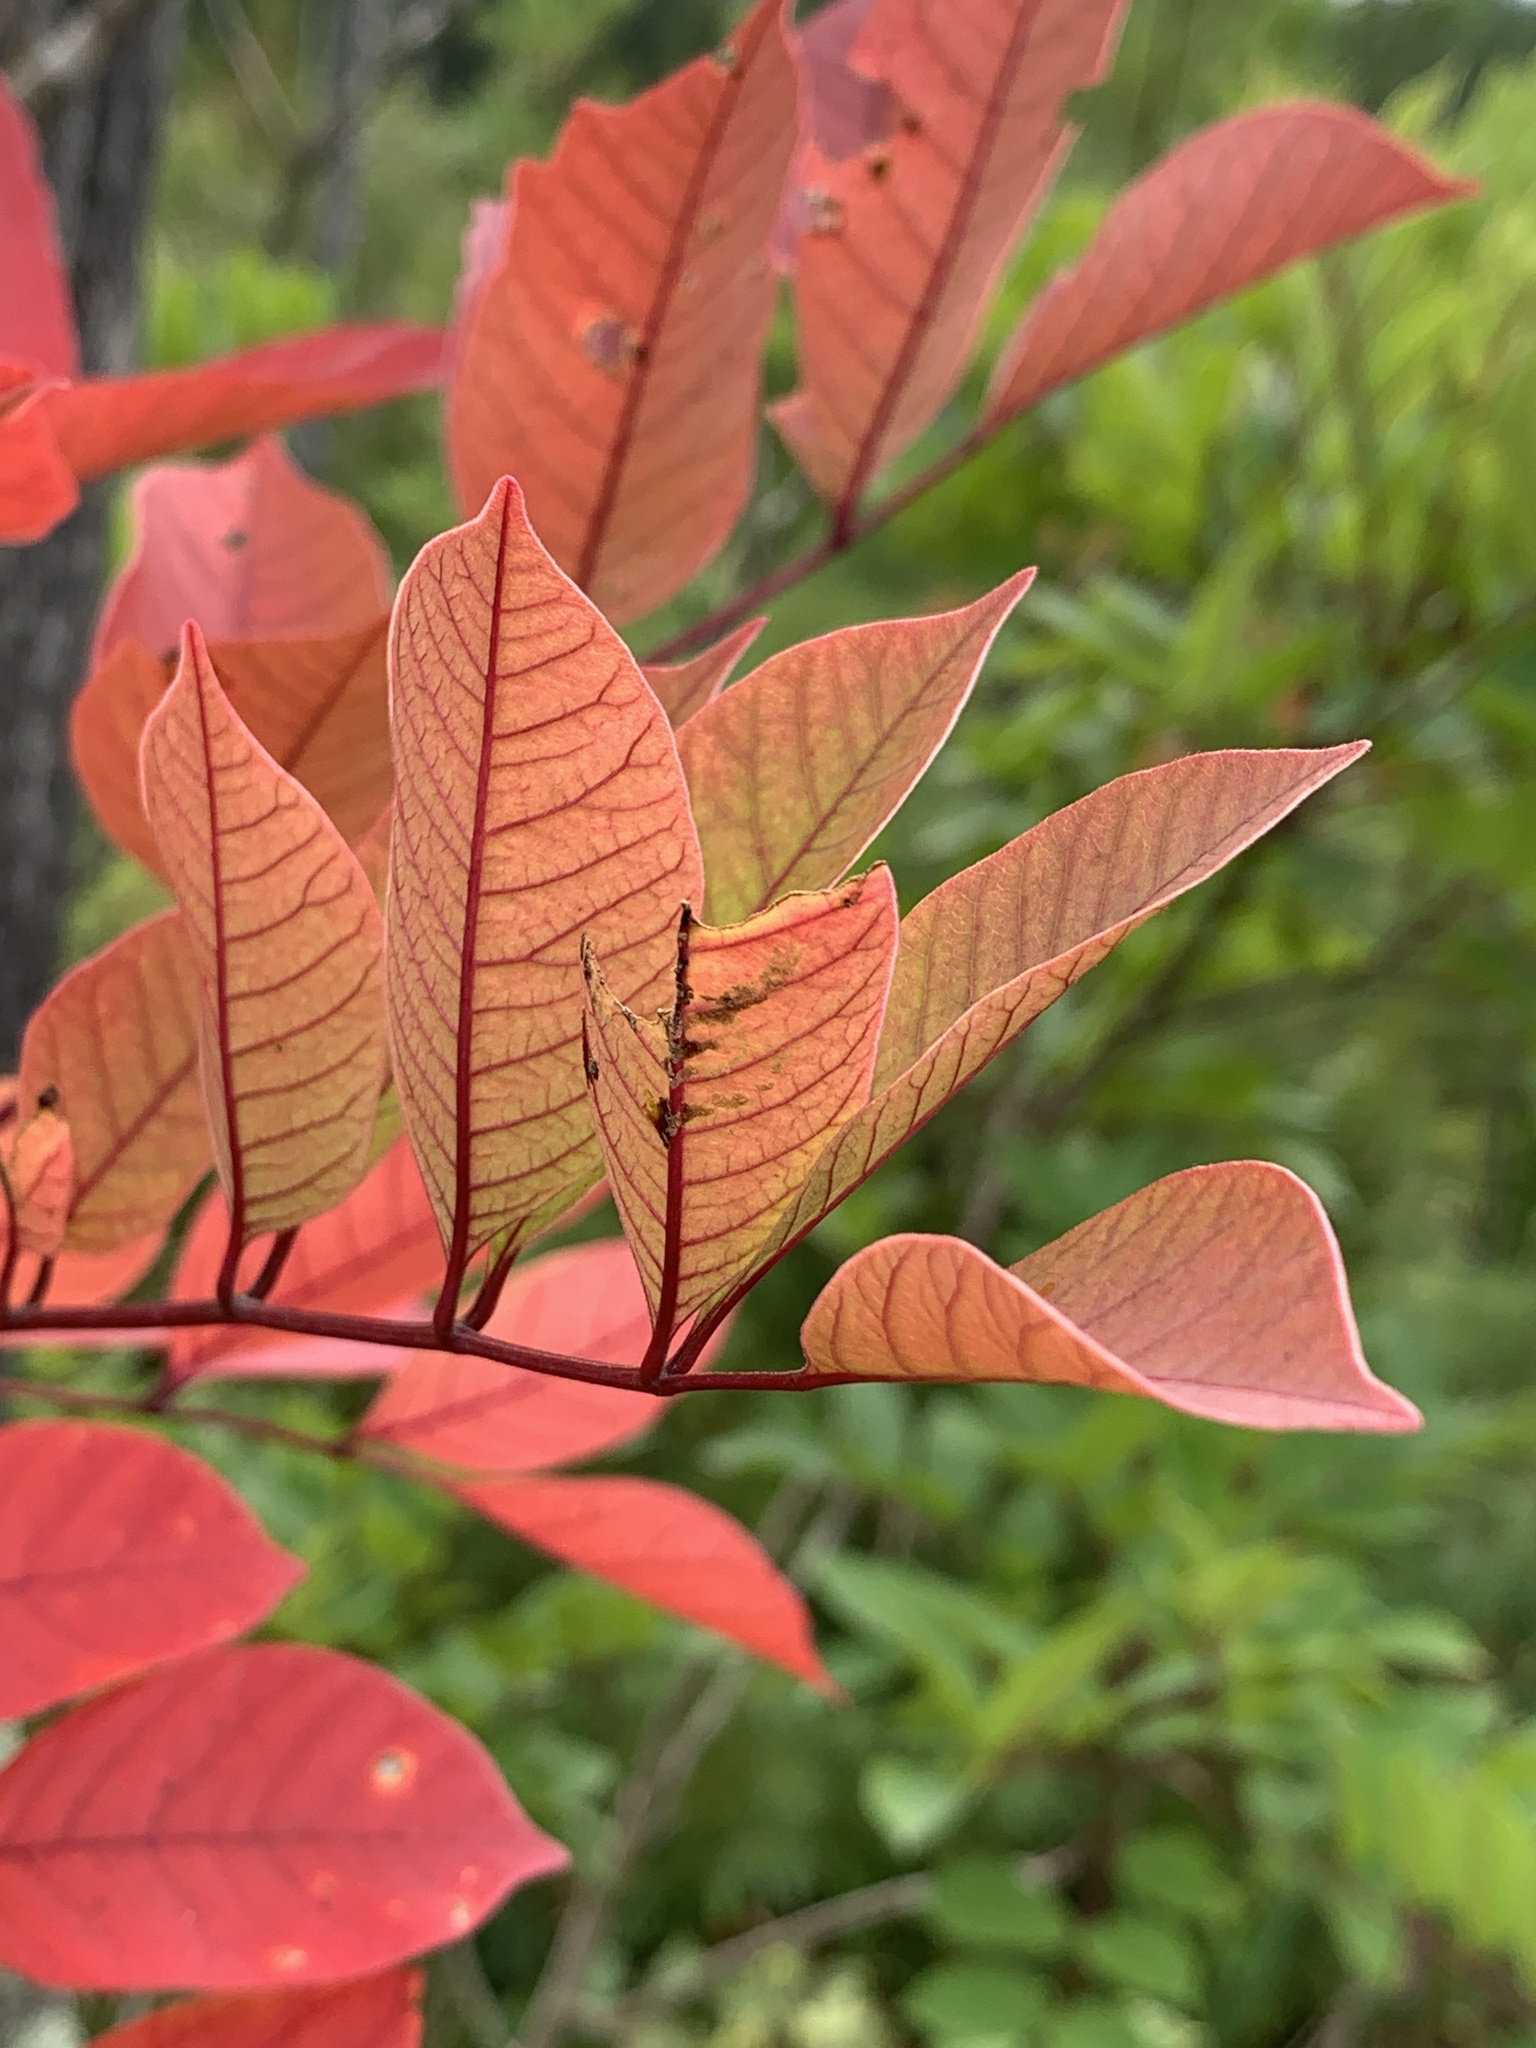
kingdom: Plantae
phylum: Tracheophyta
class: Magnoliopsida
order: Sapindales
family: Anacardiaceae
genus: Toxicodendron
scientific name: Toxicodendron vernix
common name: Poison sumac
